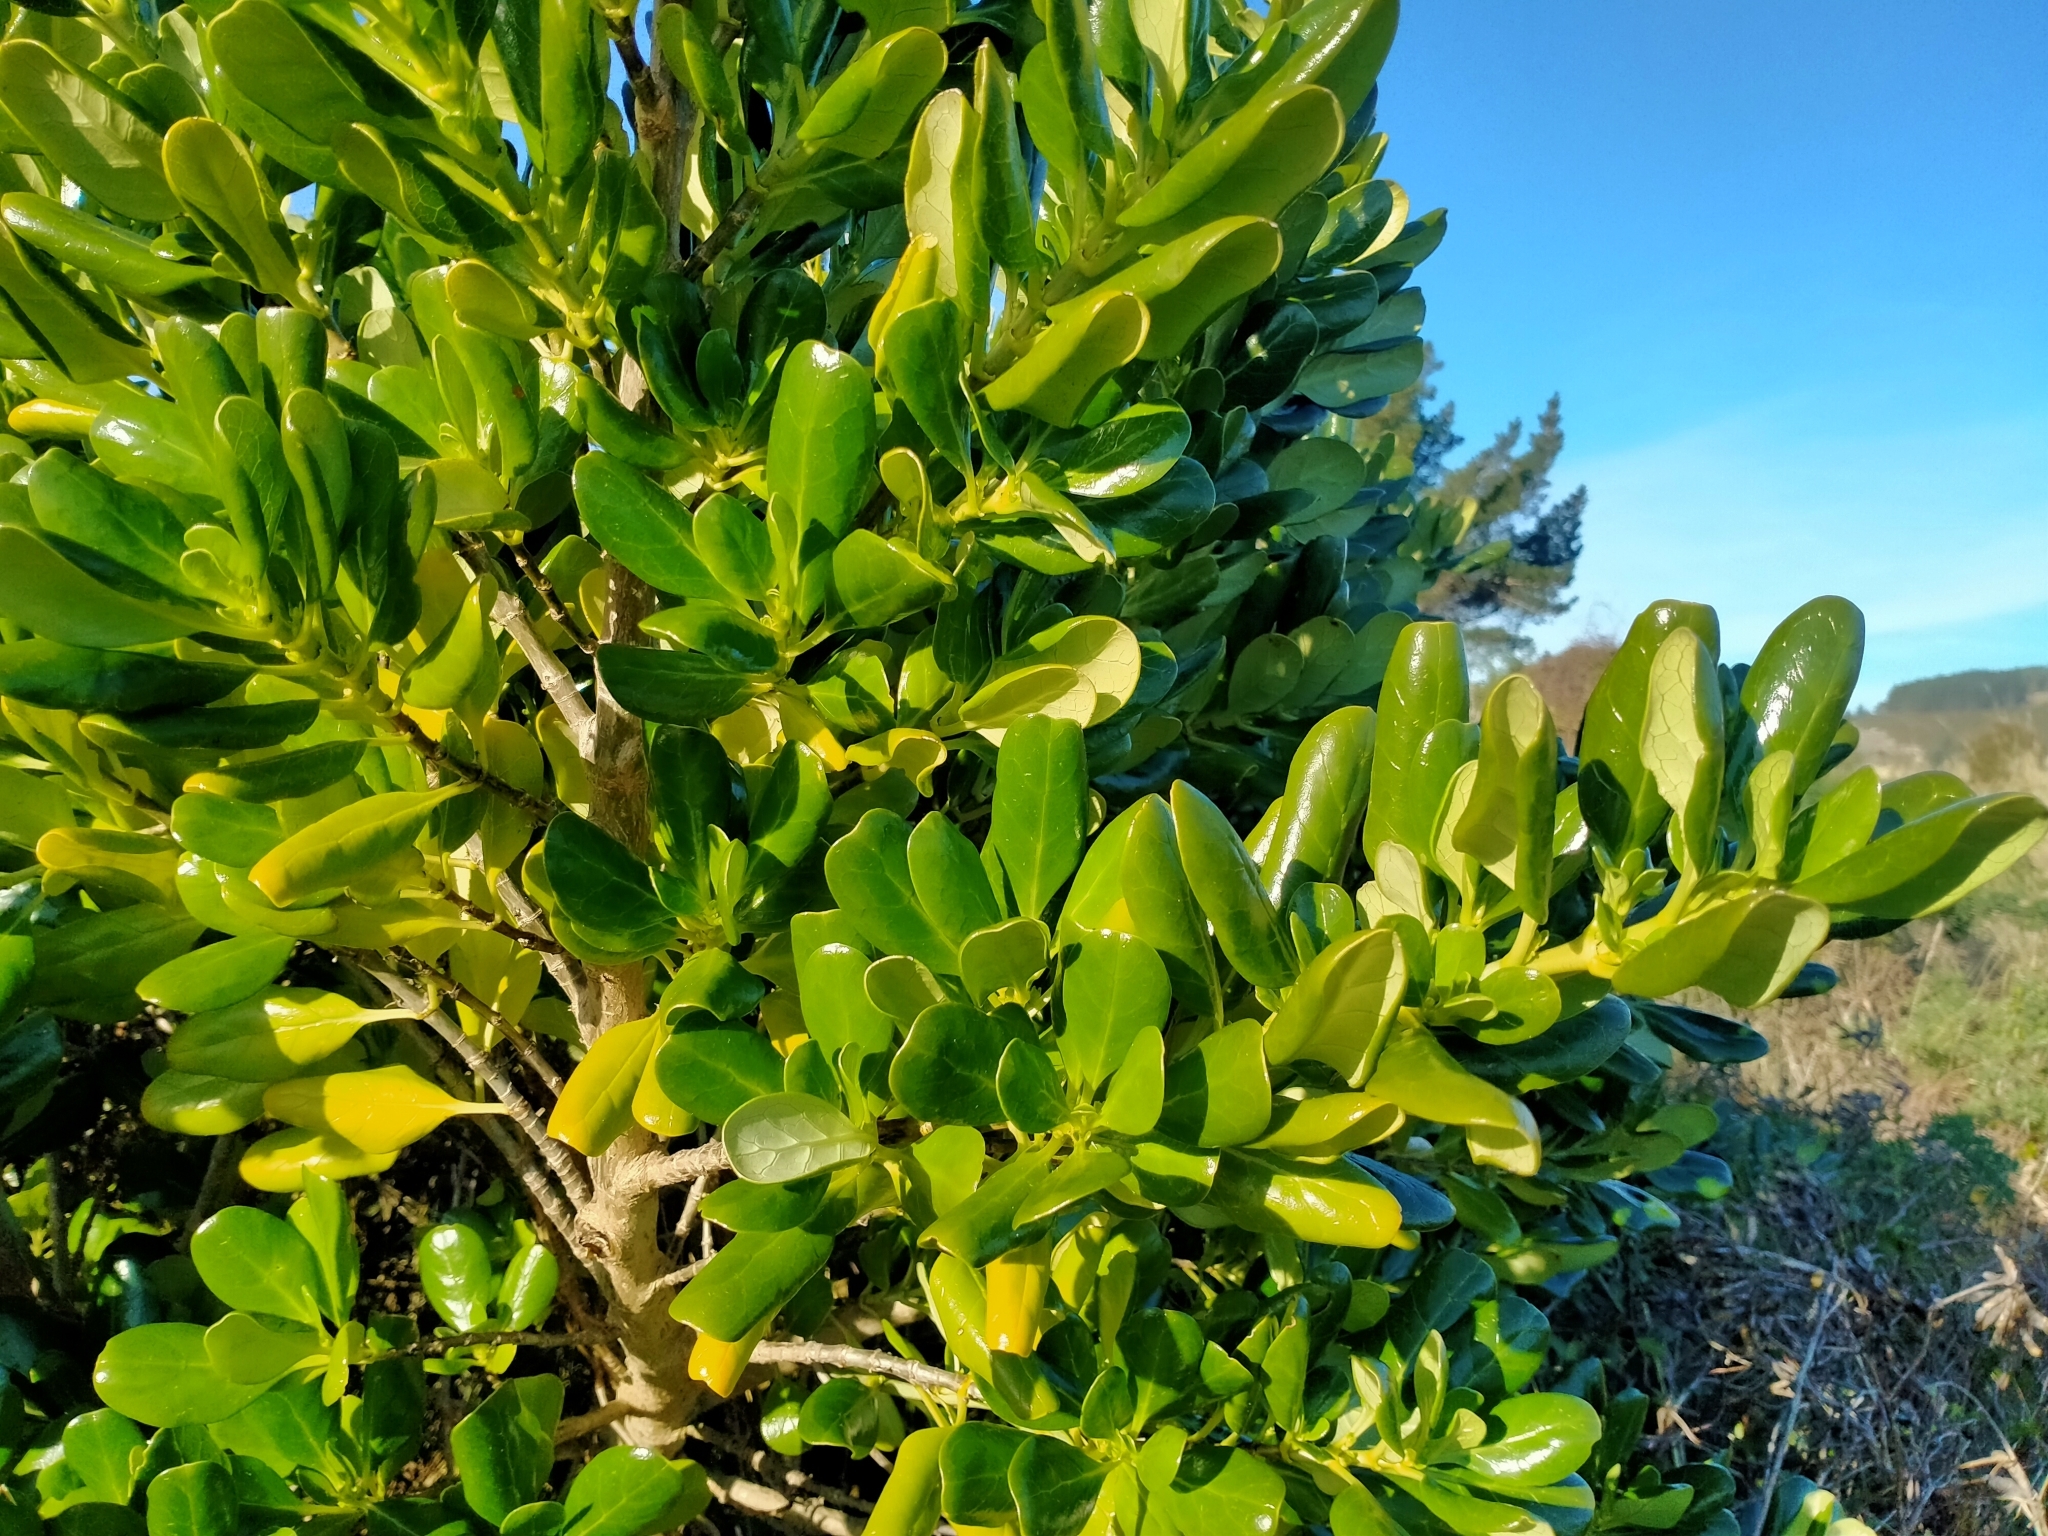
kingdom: Plantae
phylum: Tracheophyta
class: Magnoliopsida
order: Gentianales
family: Rubiaceae
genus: Coprosma
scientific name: Coprosma repens
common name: Tree bedstraw
